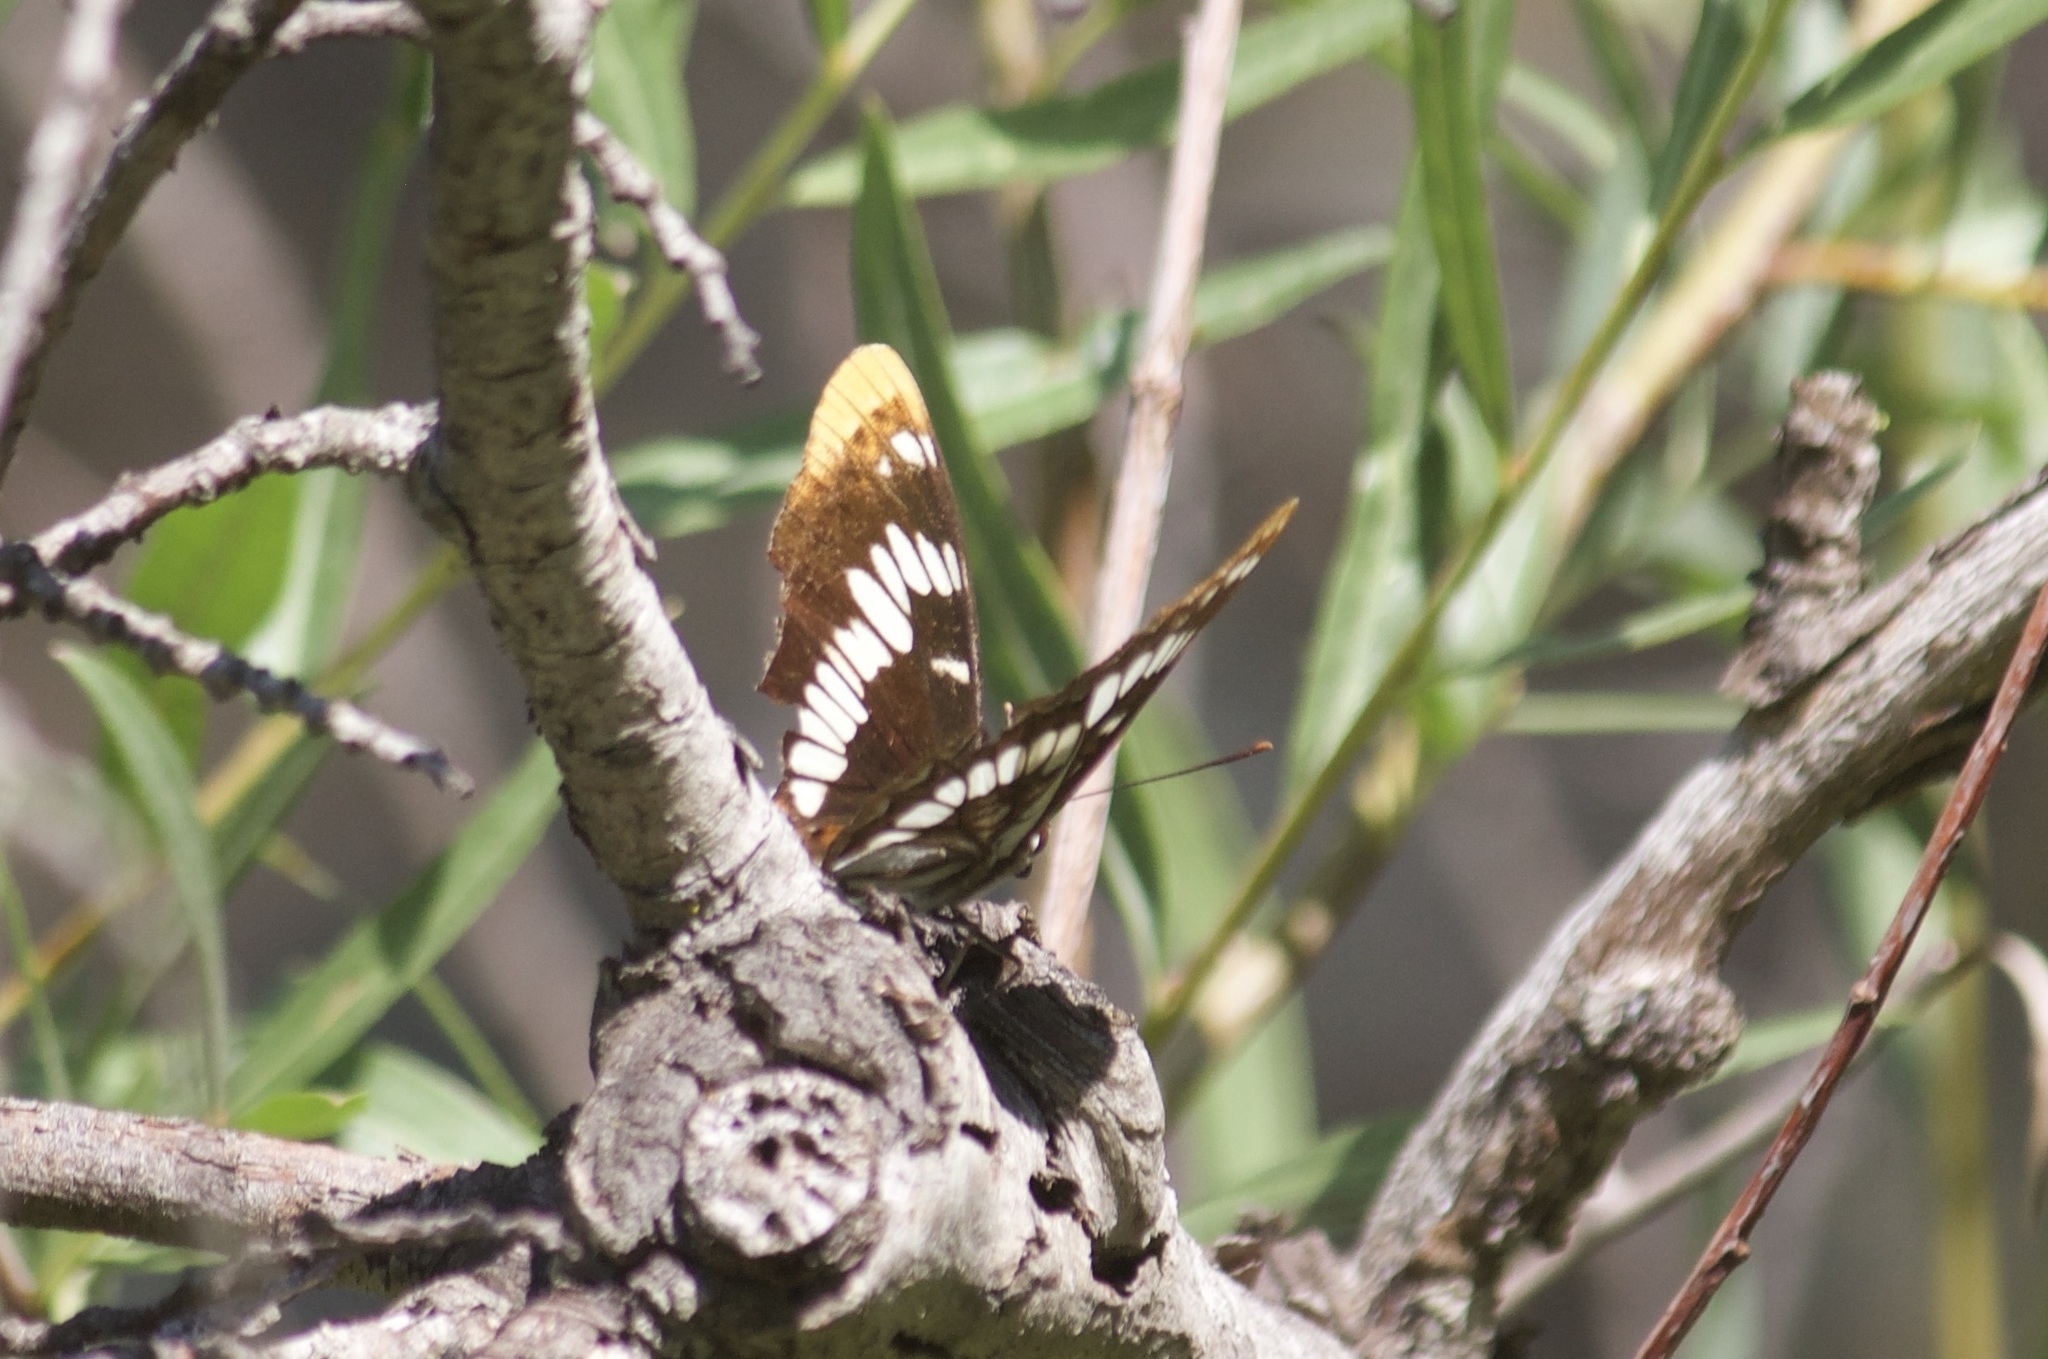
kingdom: Animalia
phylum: Arthropoda
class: Insecta
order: Lepidoptera
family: Nymphalidae
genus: Limenitis
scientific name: Limenitis lorquini
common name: Lorquin's admiral
